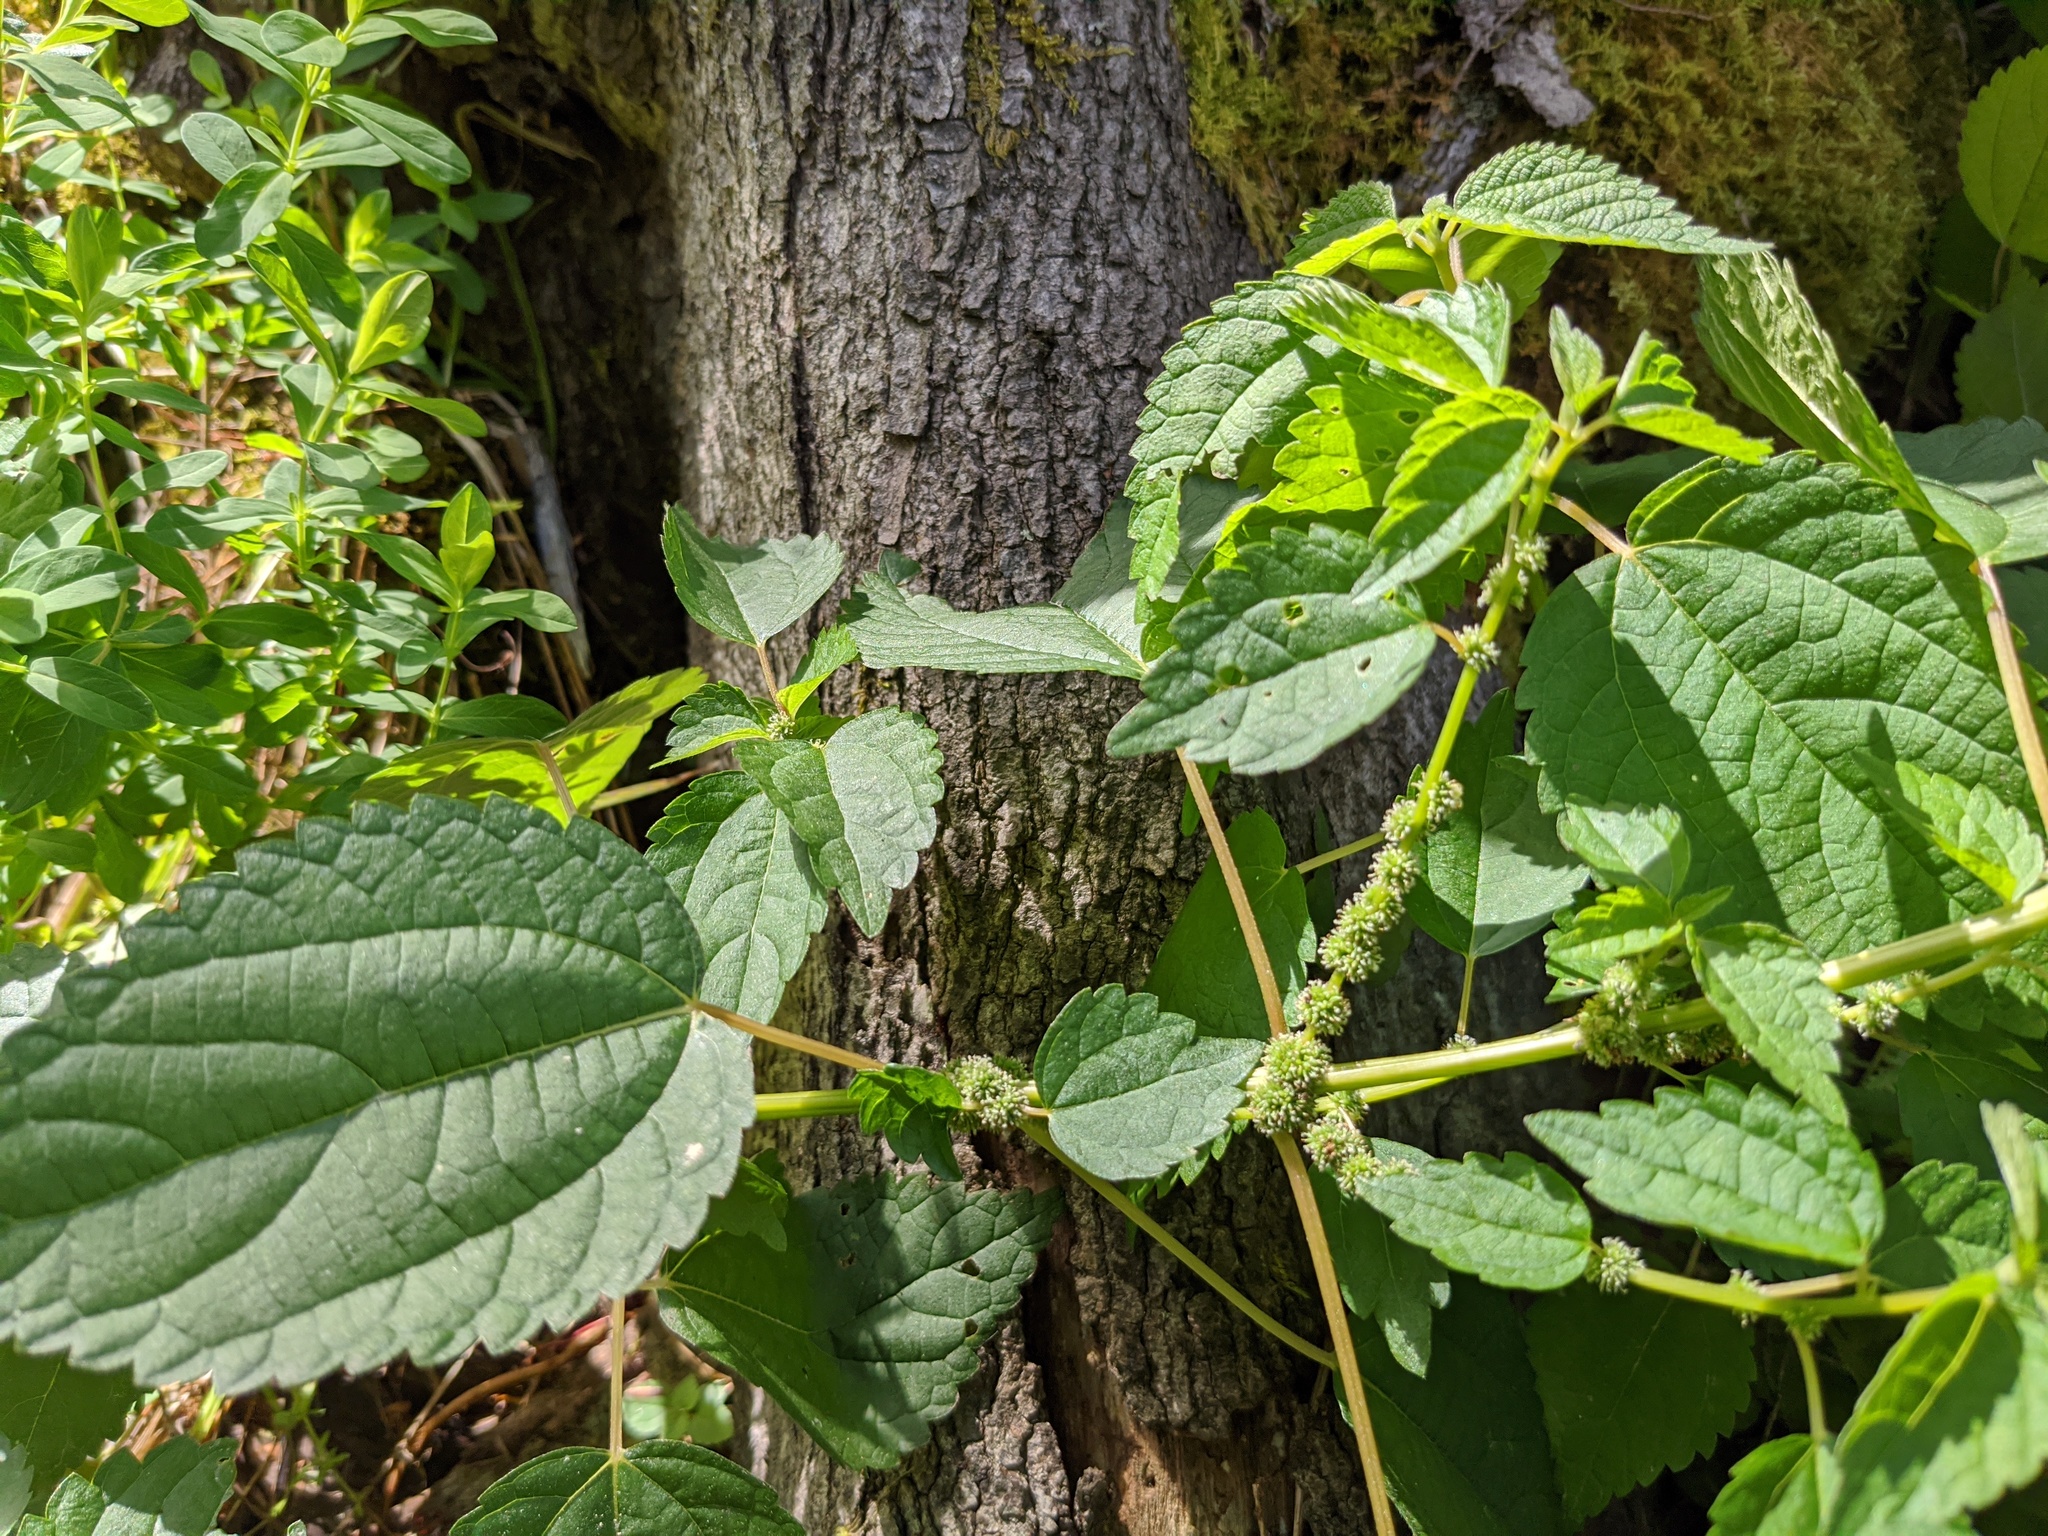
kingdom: Plantae
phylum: Tracheophyta
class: Magnoliopsida
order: Rosales
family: Urticaceae
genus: Boehmeria
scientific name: Boehmeria cylindrica
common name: Bog-hemp
